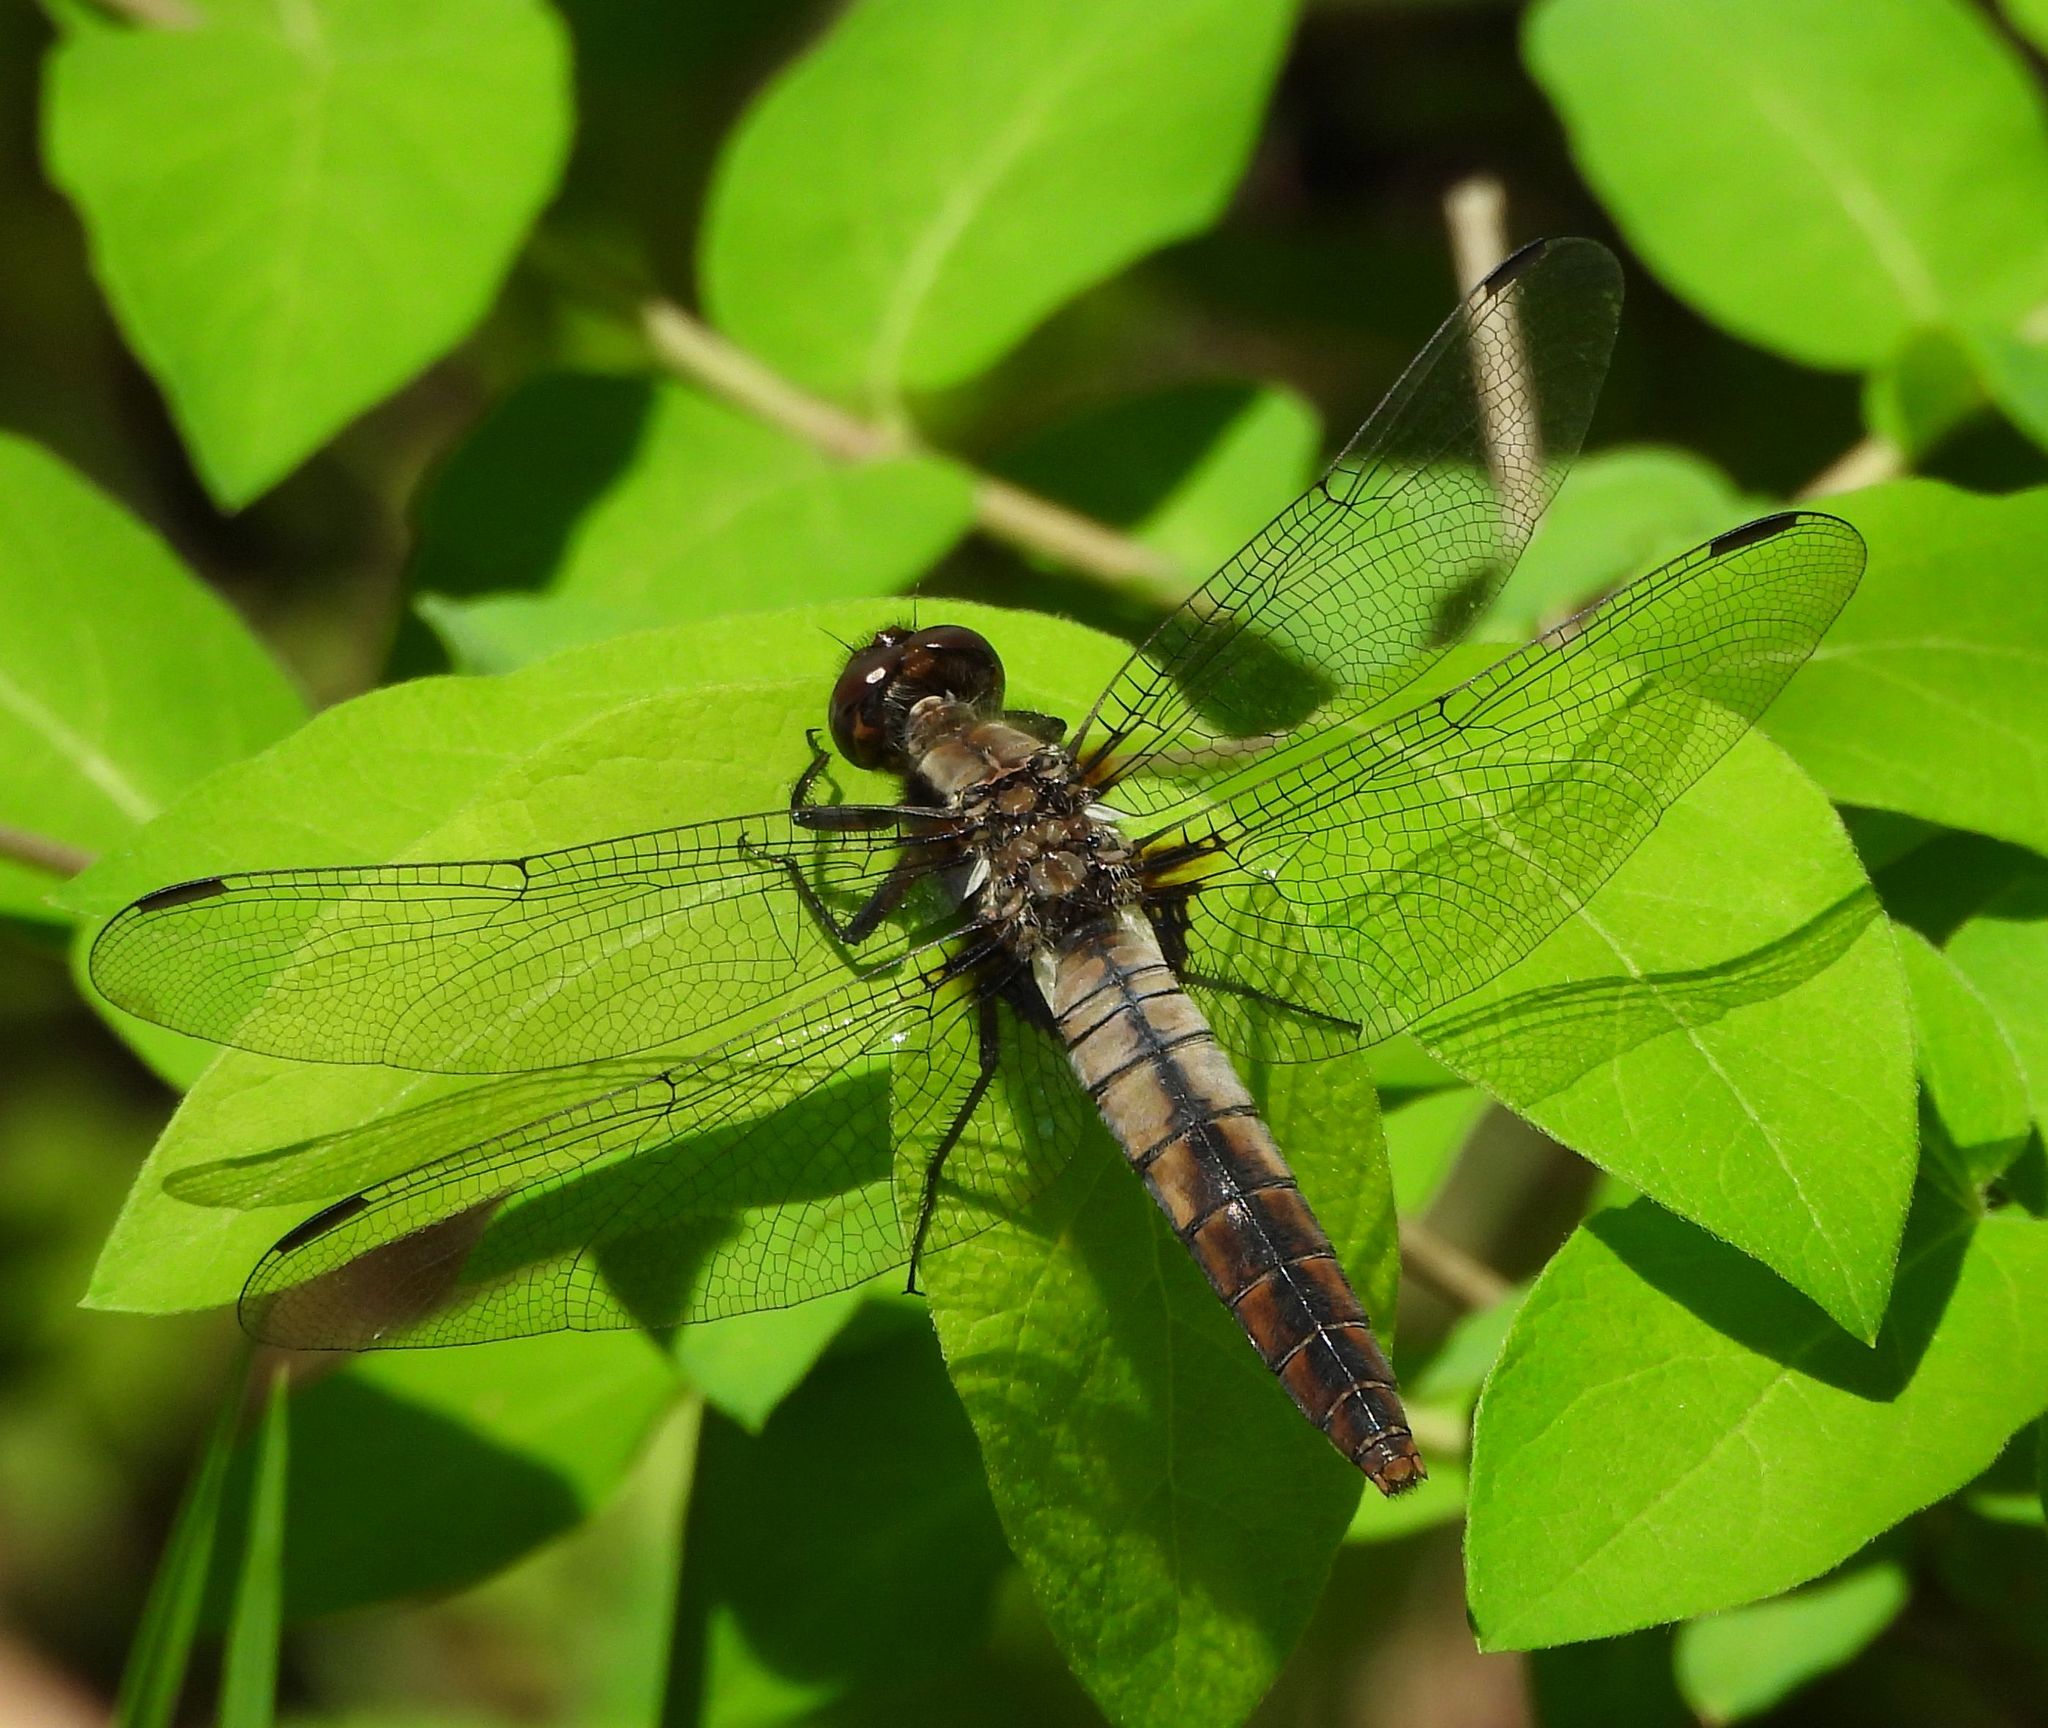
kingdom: Animalia
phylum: Arthropoda
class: Insecta
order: Odonata
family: Libellulidae
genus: Ladona
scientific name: Ladona julia
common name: Chalk-fronted corporal
